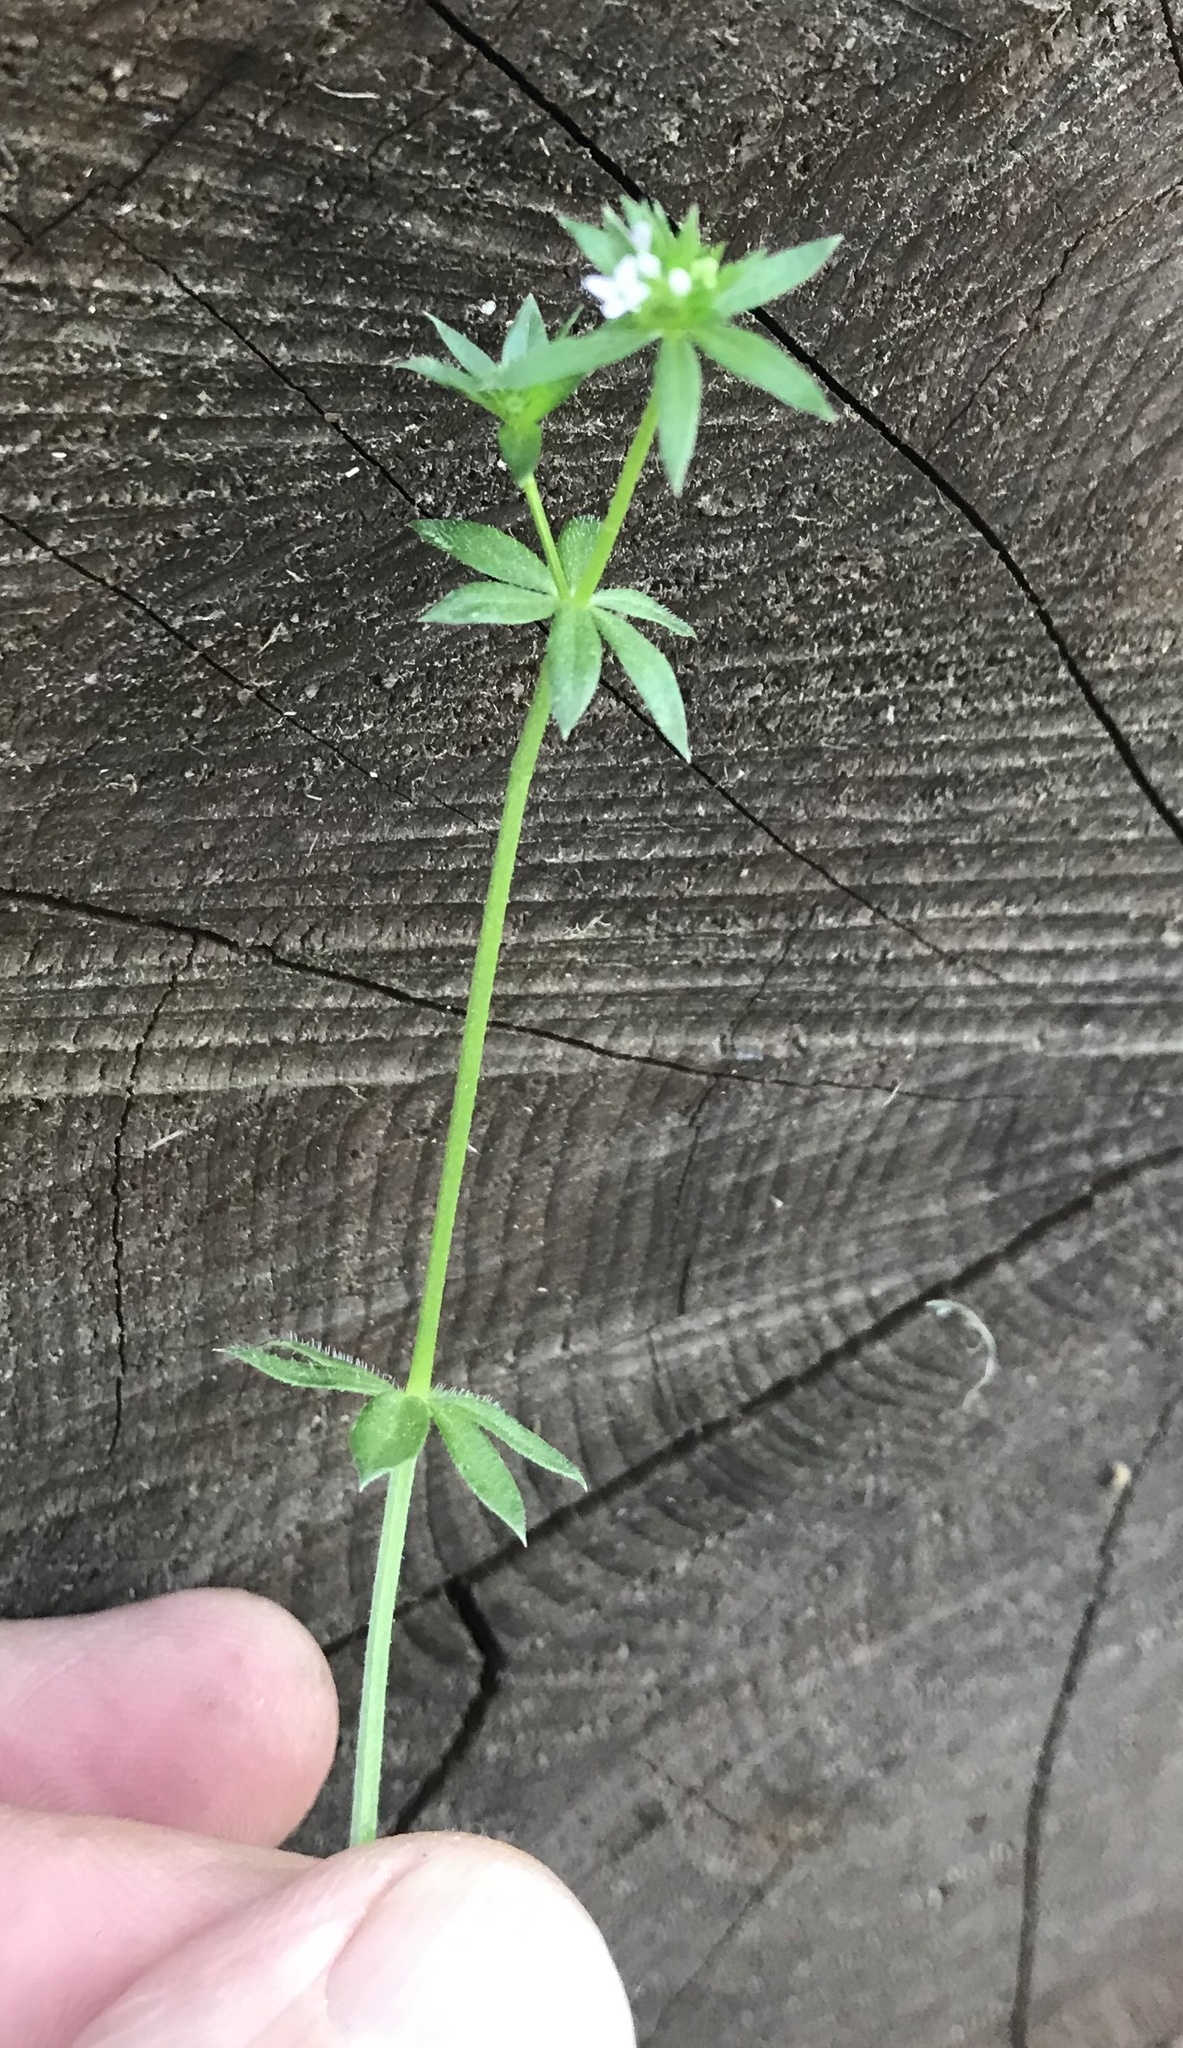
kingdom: Plantae
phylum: Tracheophyta
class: Magnoliopsida
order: Gentianales
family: Rubiaceae
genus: Sherardia
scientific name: Sherardia arvensis
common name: Field madder
